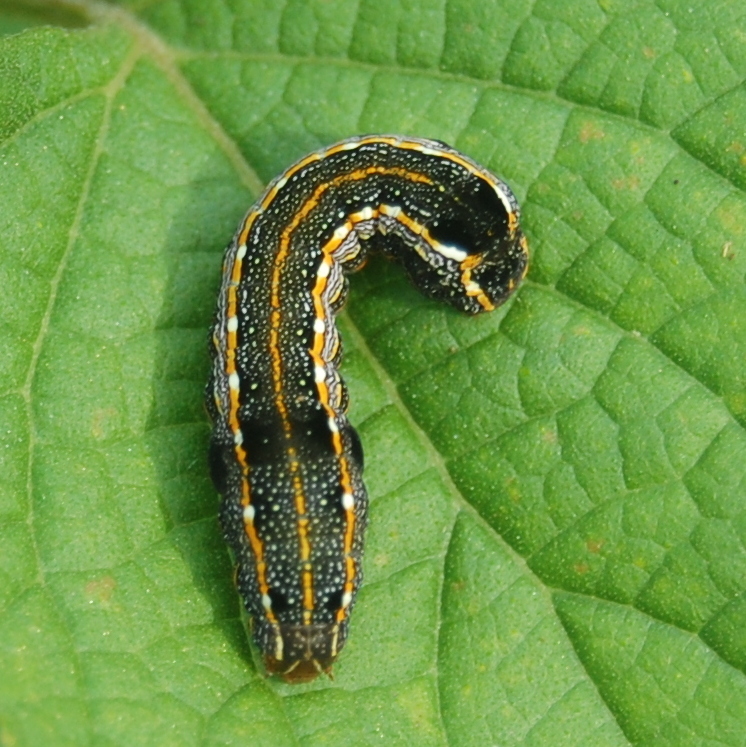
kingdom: Animalia
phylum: Arthropoda
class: Insecta
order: Lepidoptera
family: Noctuidae
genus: Spodoptera
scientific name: Spodoptera cosmioides
